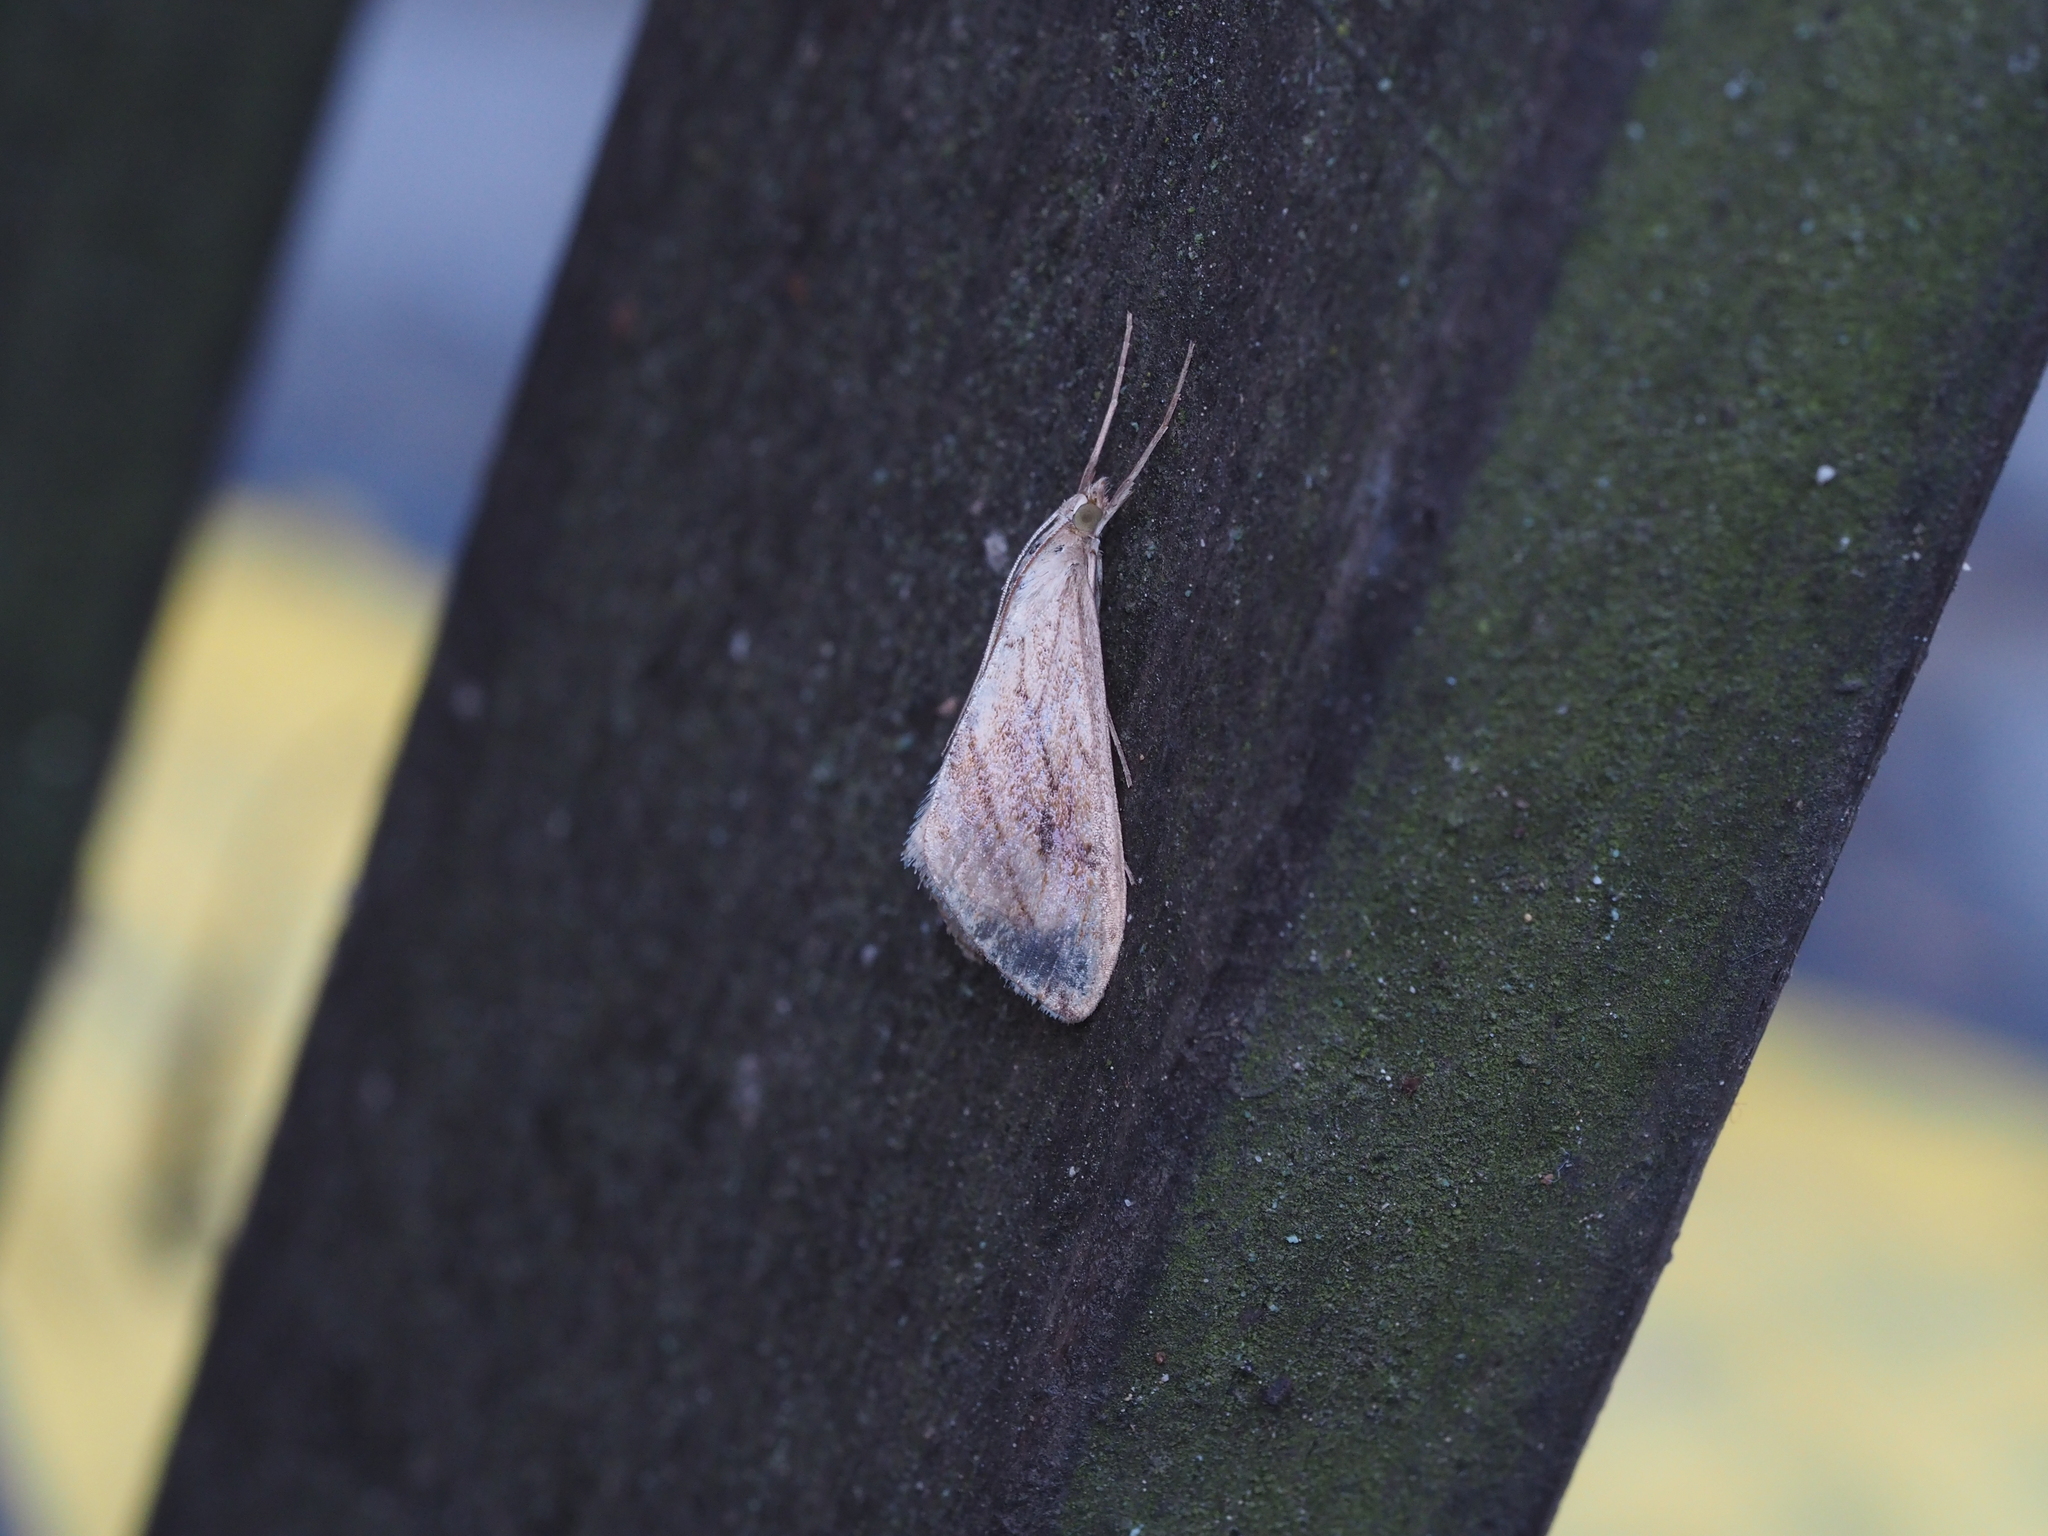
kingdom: Animalia
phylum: Arthropoda
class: Insecta
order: Lepidoptera
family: Crambidae
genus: Evergestis
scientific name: Evergestis forficalis
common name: Garden pebble
